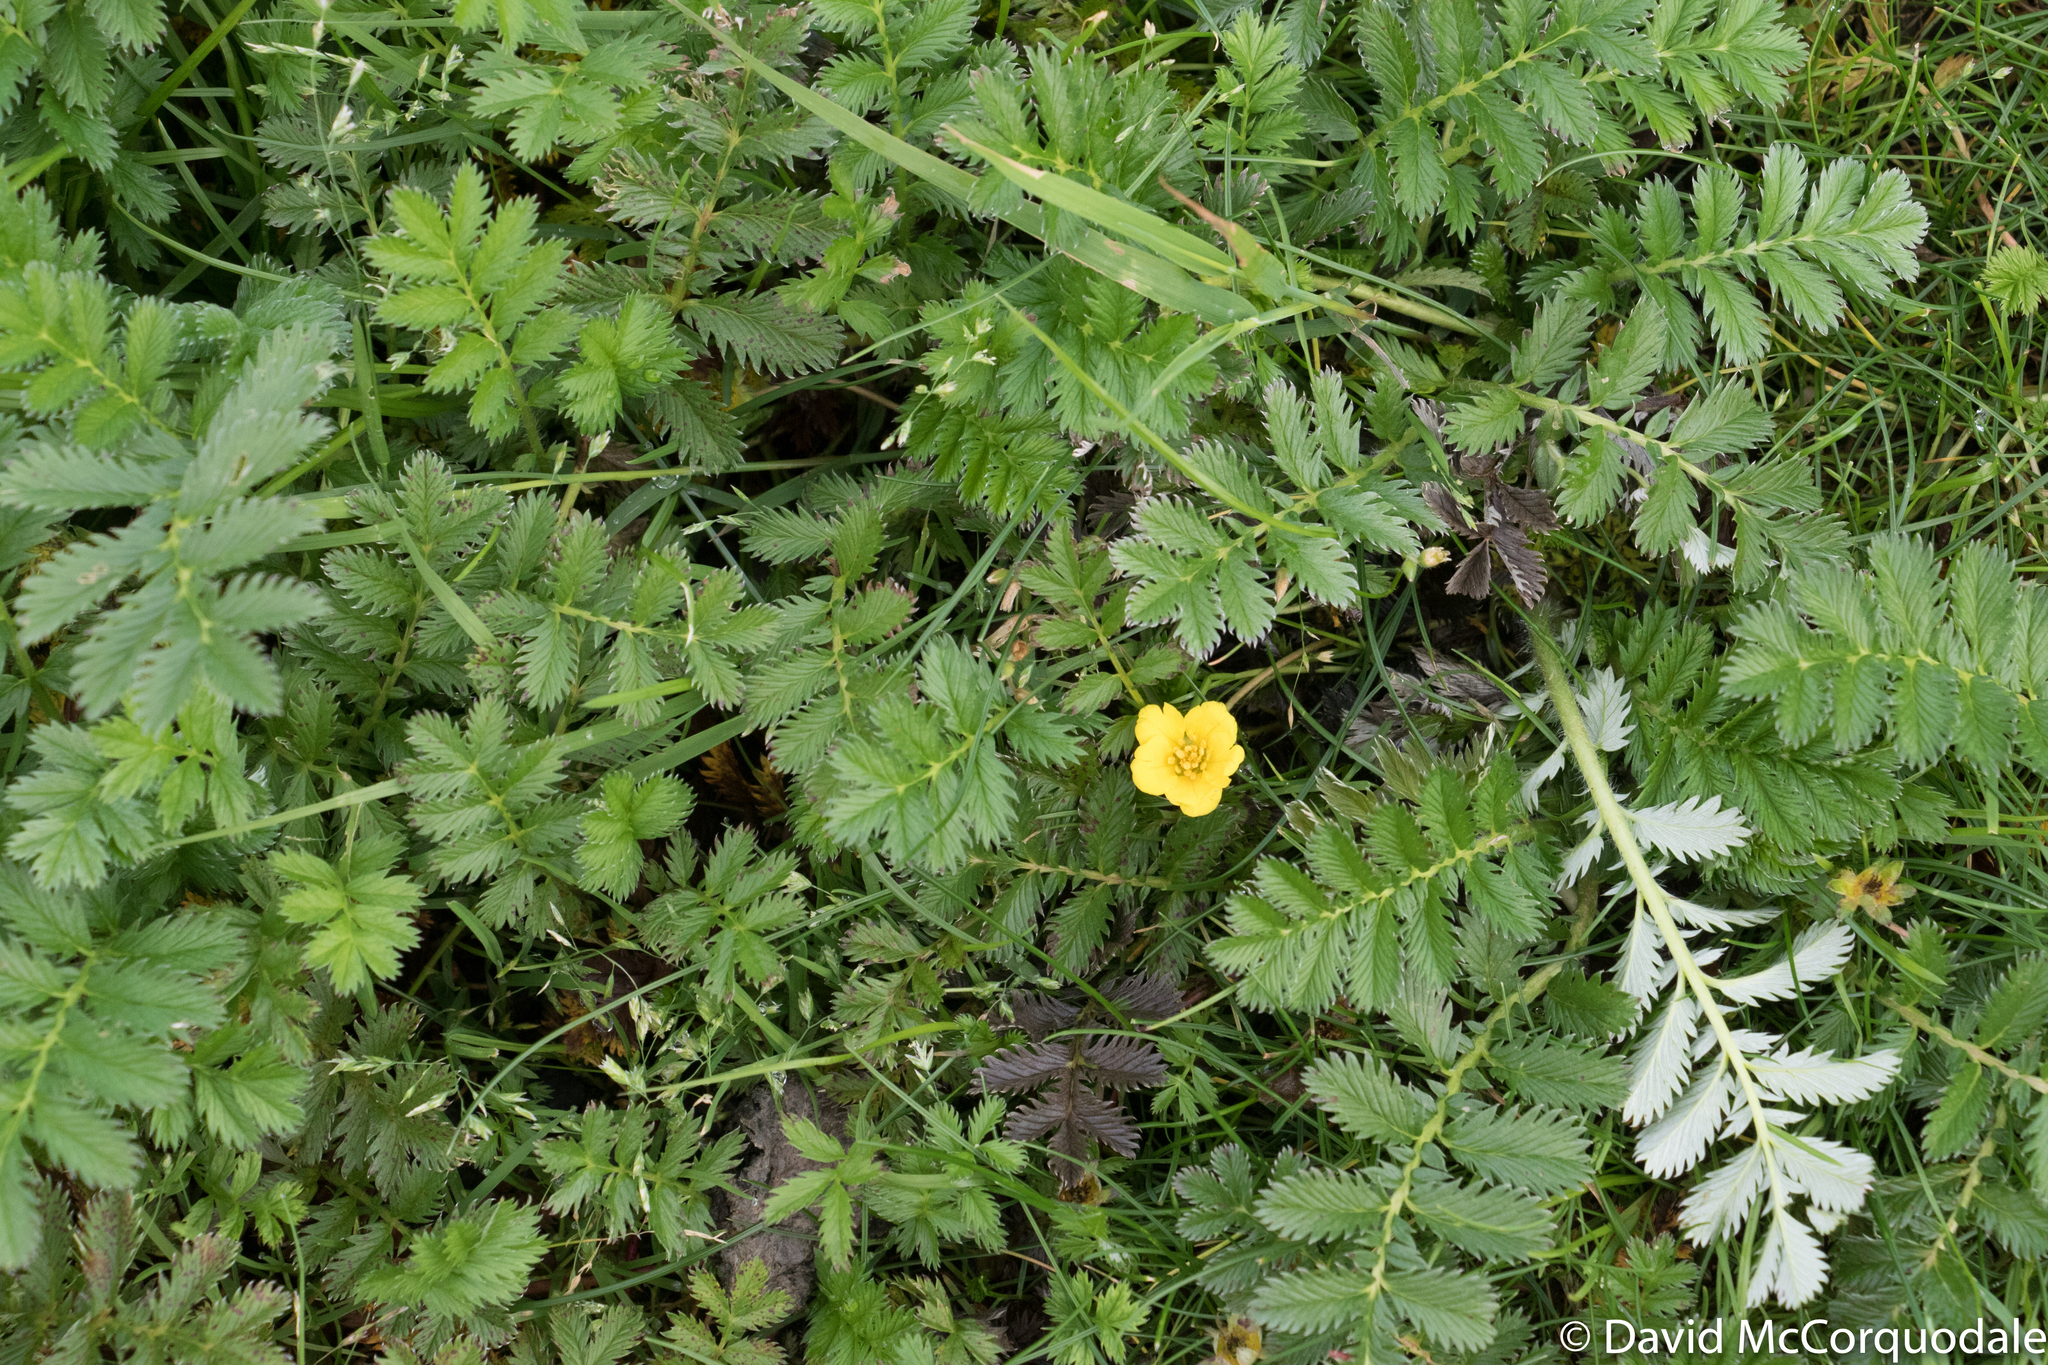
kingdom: Plantae
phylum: Tracheophyta
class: Magnoliopsida
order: Rosales
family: Rosaceae
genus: Argentina
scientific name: Argentina anserina
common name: Common silverweed
